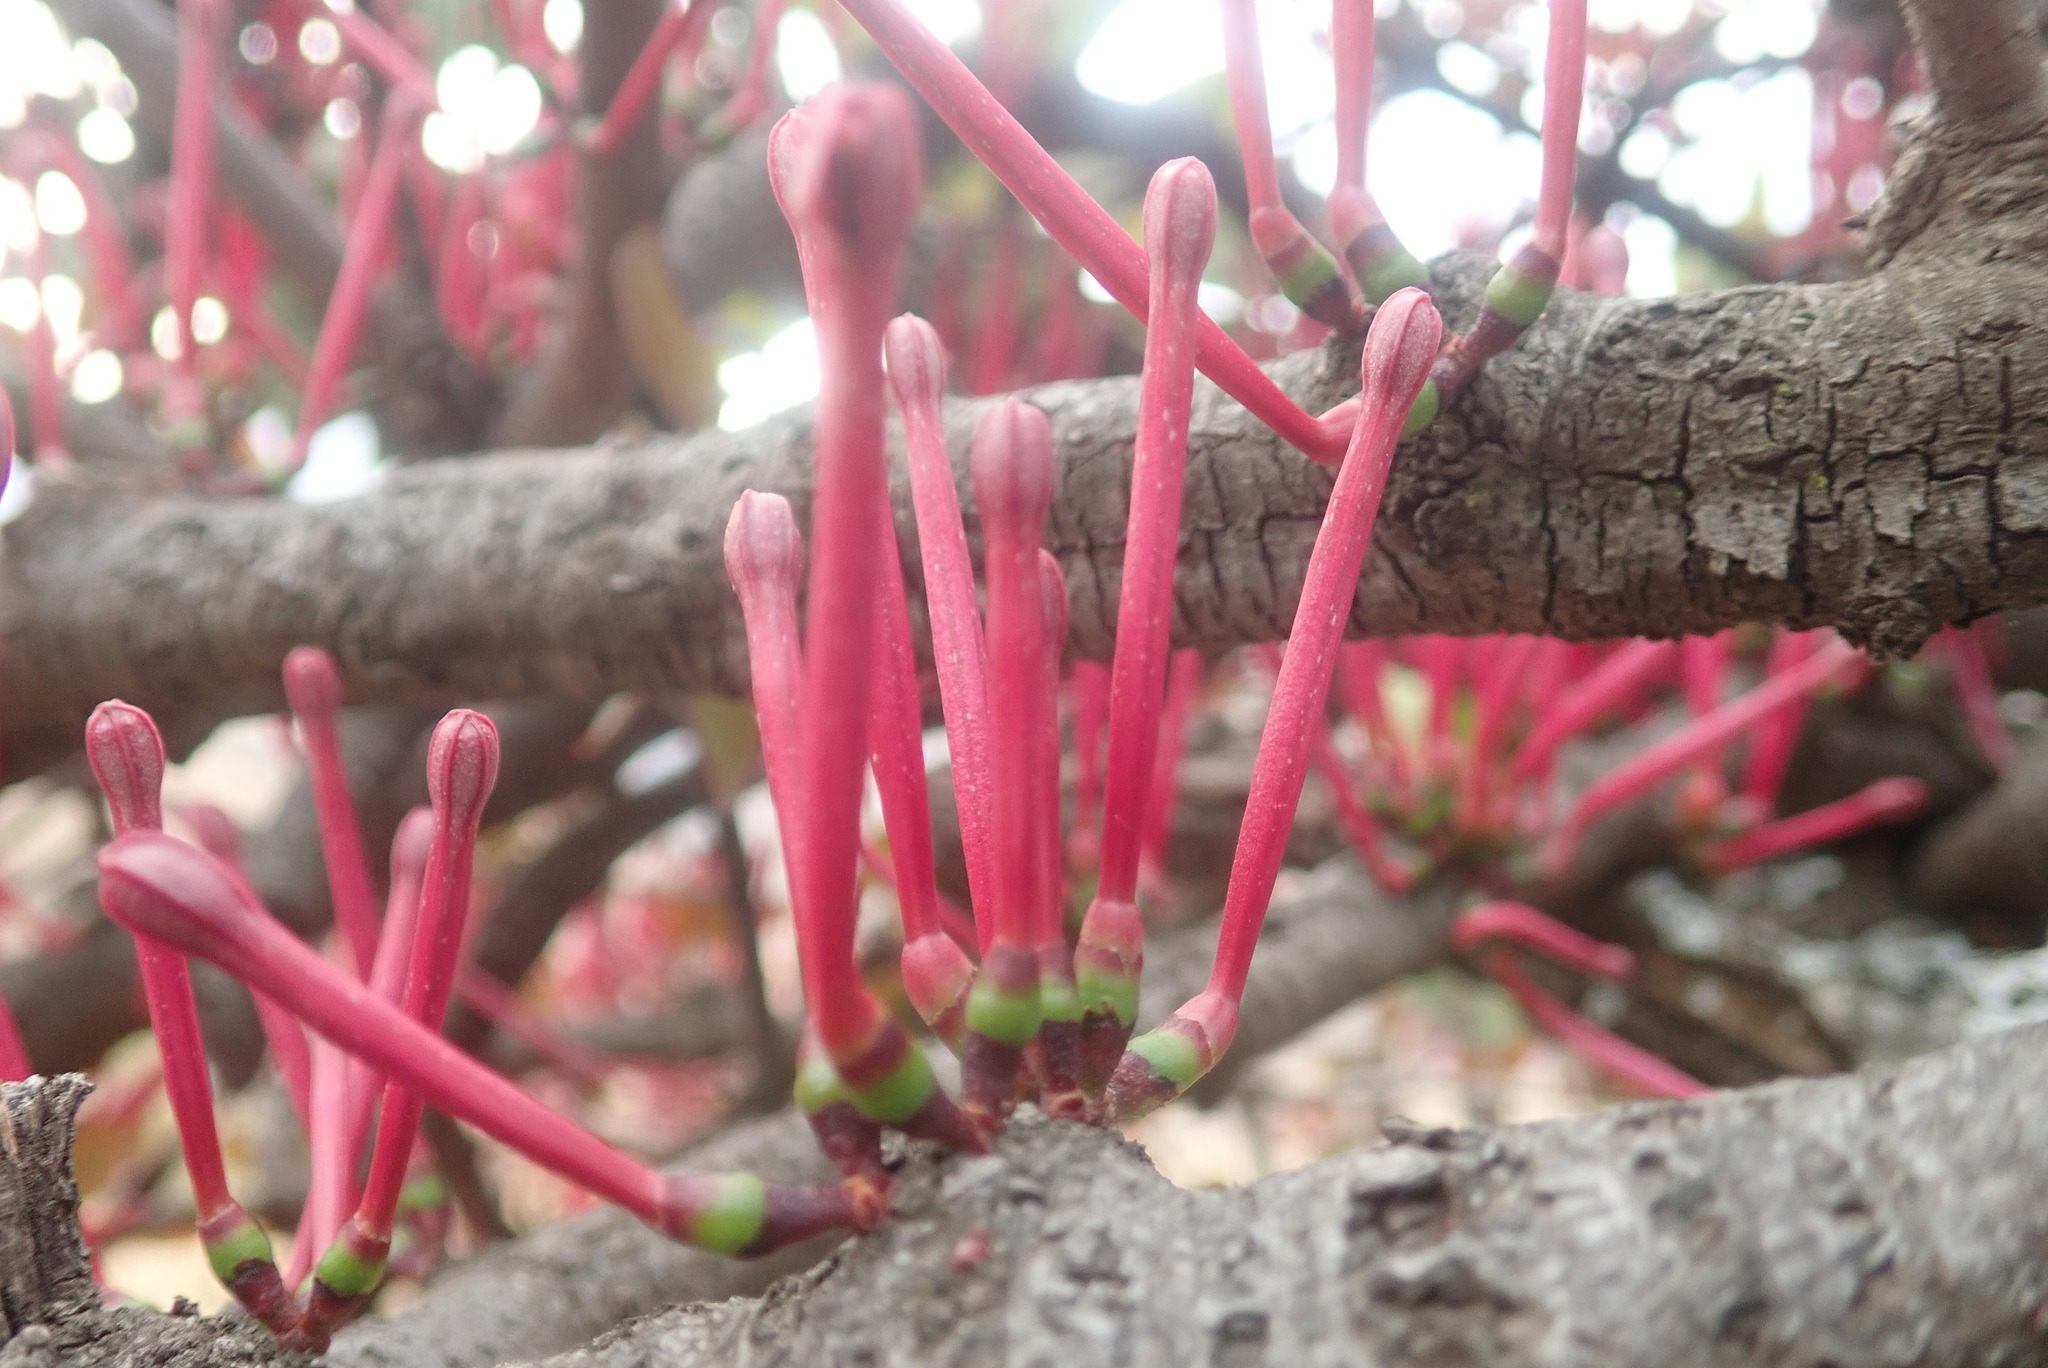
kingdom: Plantae
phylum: Tracheophyta
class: Magnoliopsida
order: Santalales
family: Loranthaceae
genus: Tapinanthus
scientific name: Tapinanthus rubromarginatus
